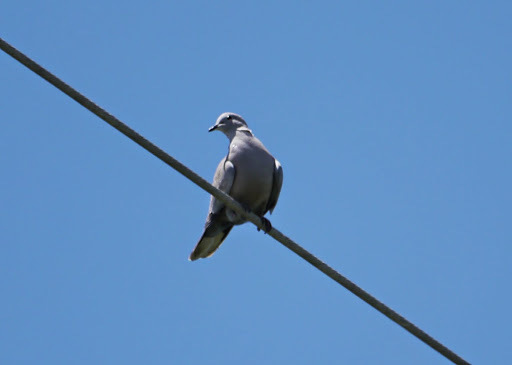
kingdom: Animalia
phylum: Chordata
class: Aves
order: Columbiformes
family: Columbidae
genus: Streptopelia
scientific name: Streptopelia decaocto
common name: Eurasian collared dove
